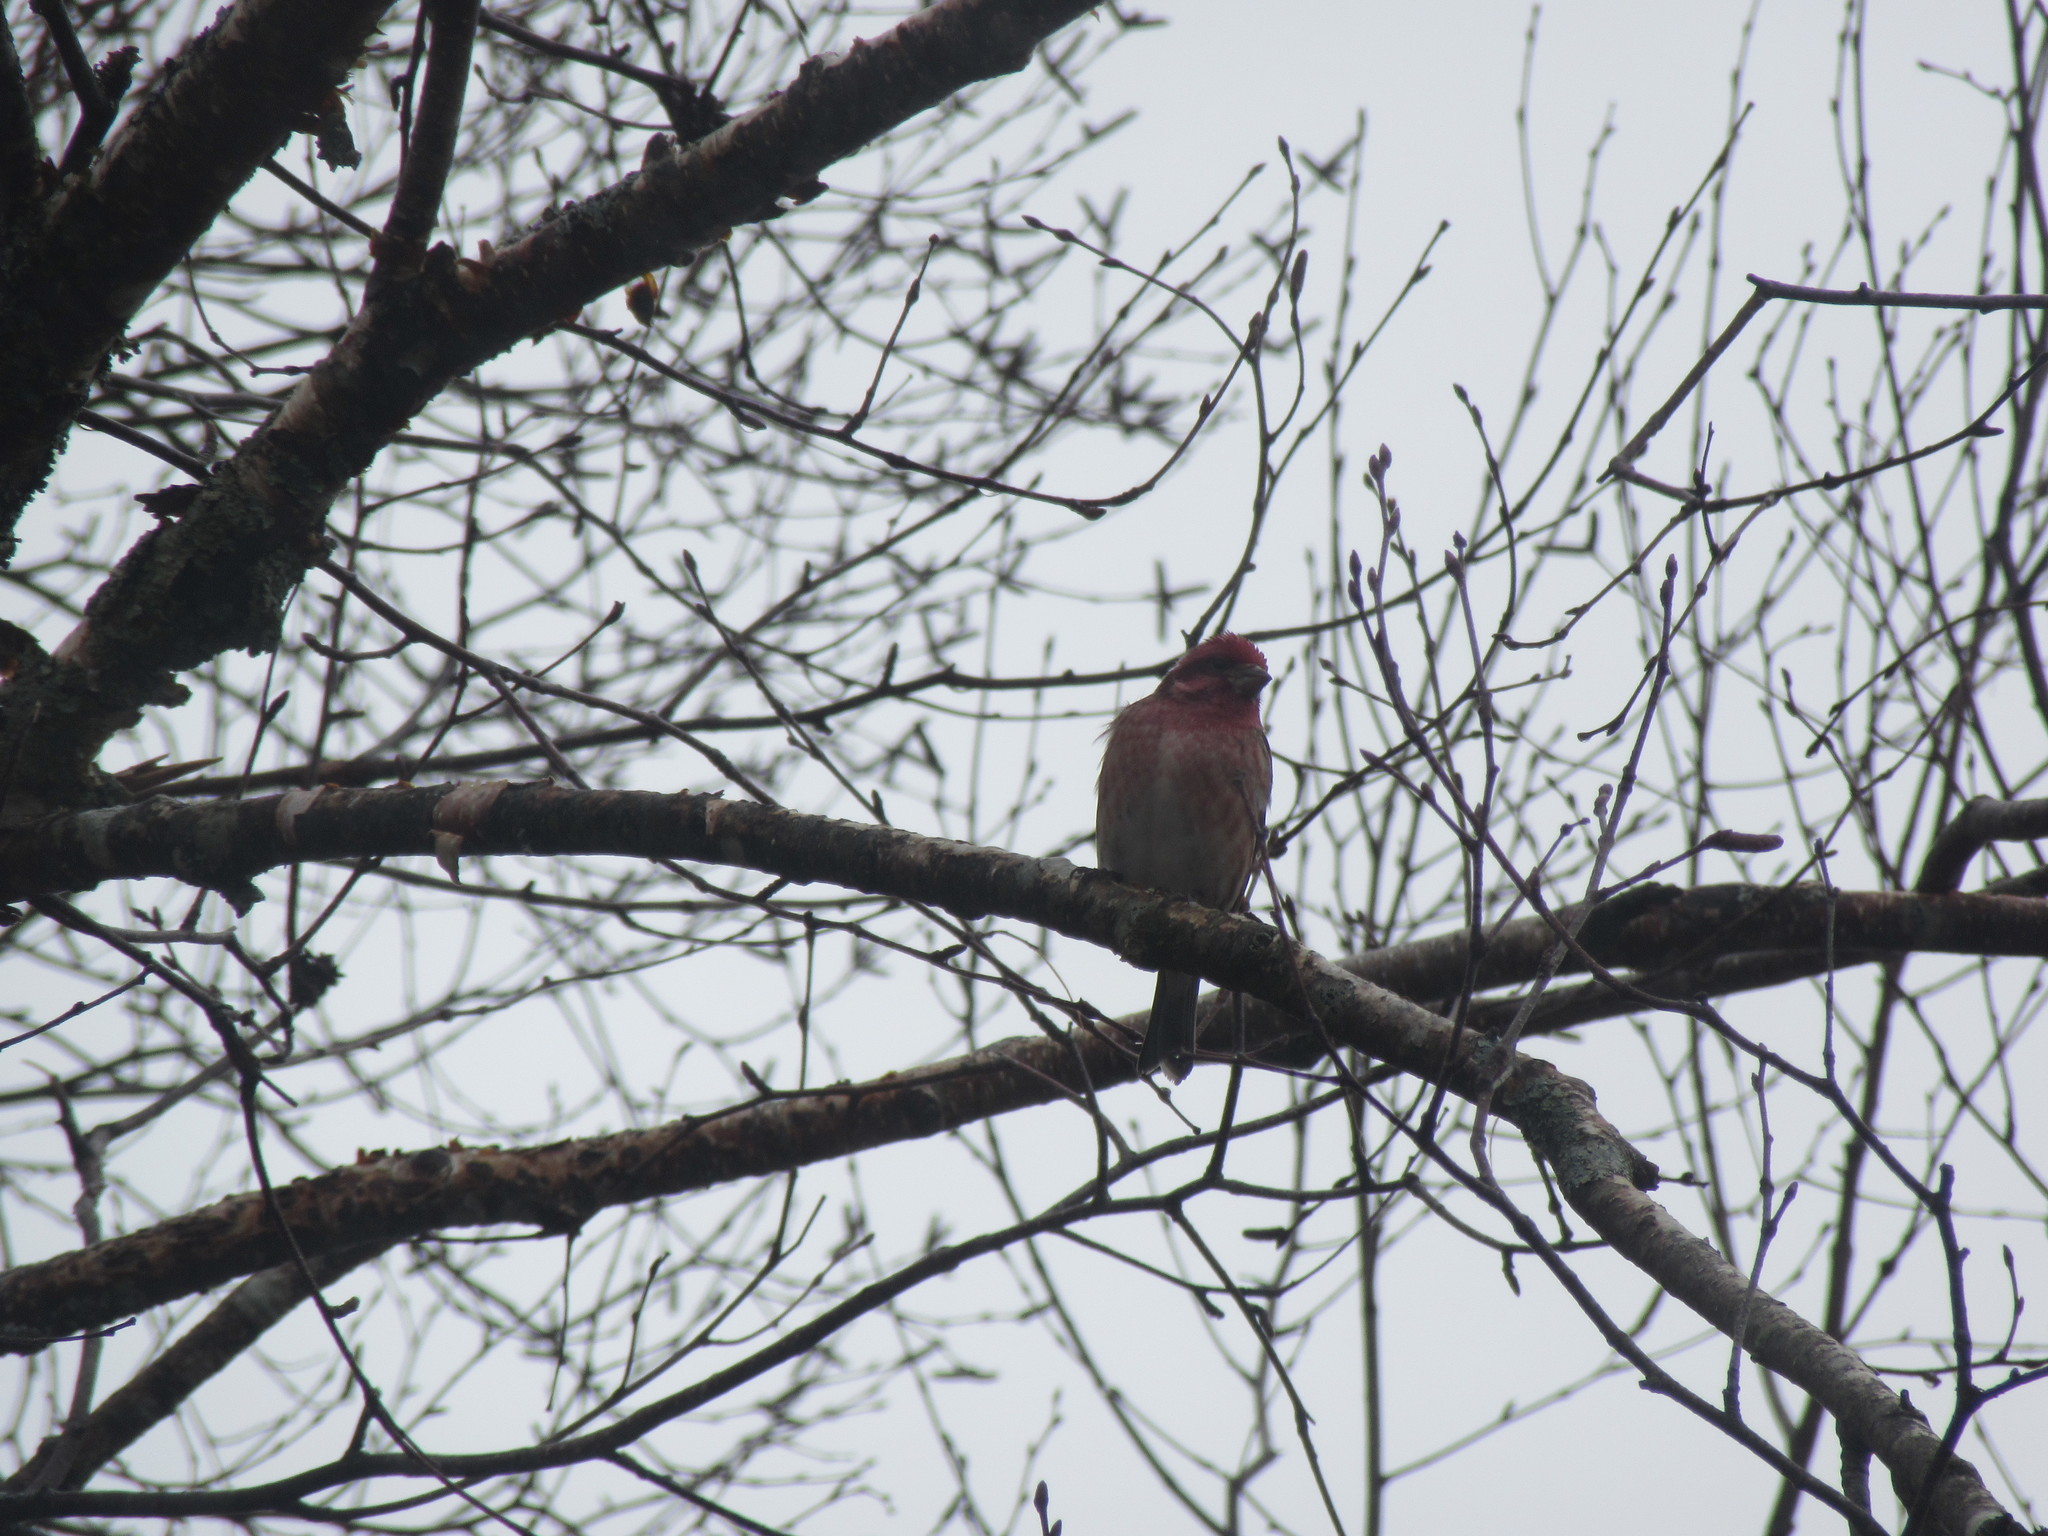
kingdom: Animalia
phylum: Chordata
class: Aves
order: Passeriformes
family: Fringillidae
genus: Haemorhous
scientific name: Haemorhous purpureus
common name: Purple finch
